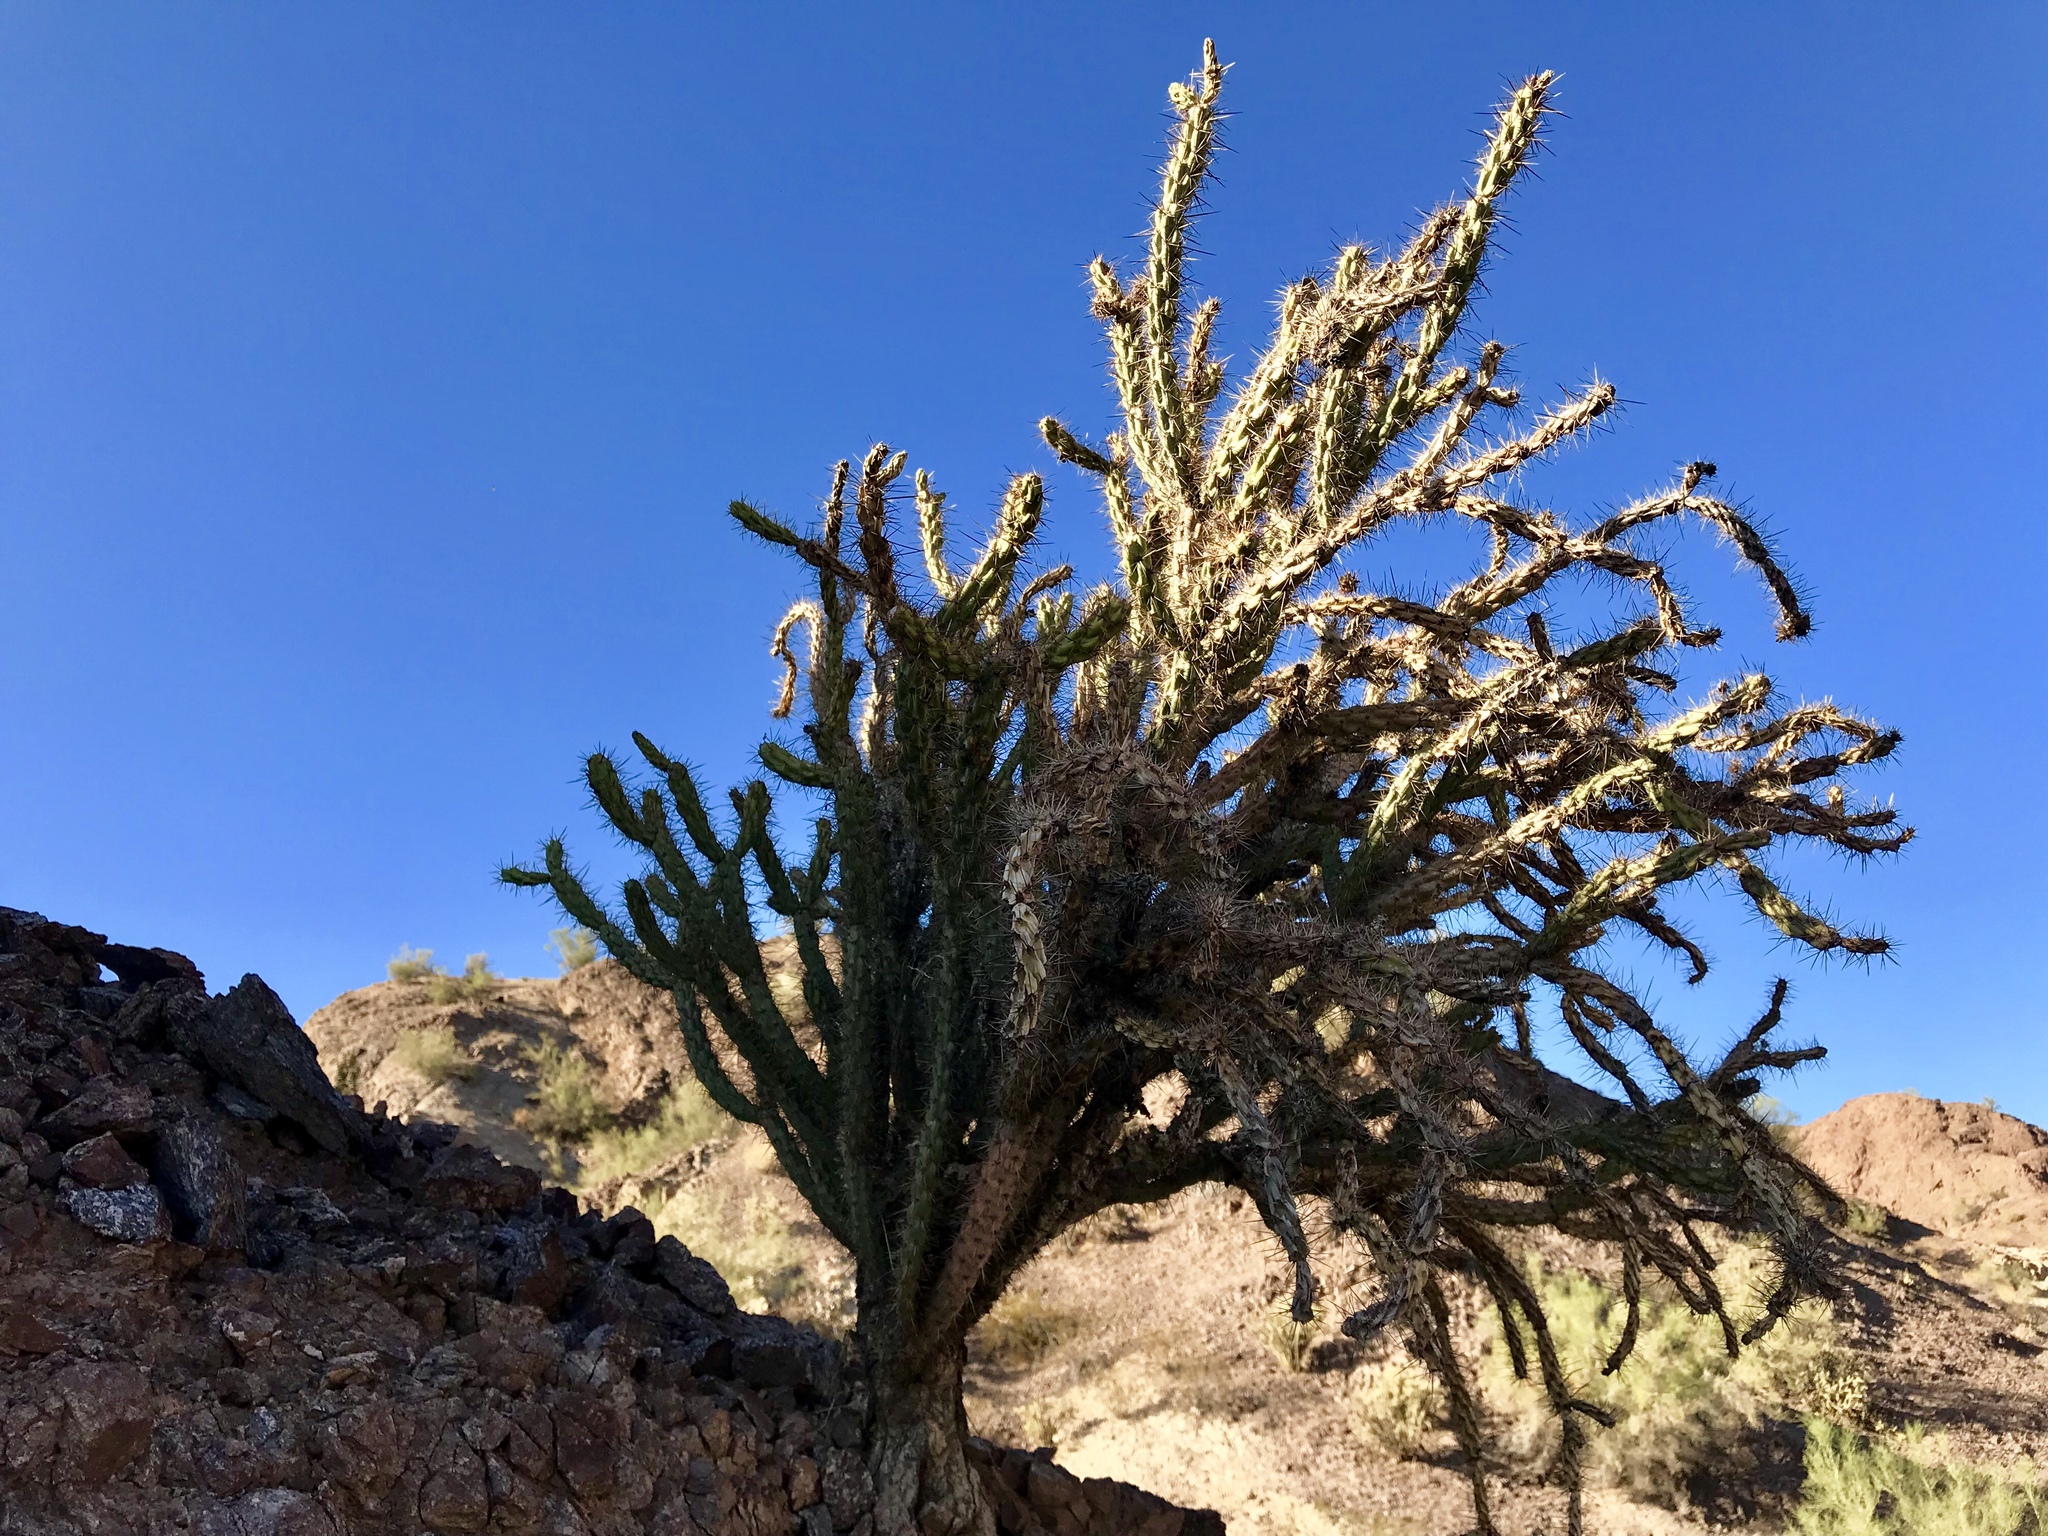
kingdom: Plantae
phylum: Tracheophyta
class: Magnoliopsida
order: Caryophyllales
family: Cactaceae
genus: Cylindropuntia
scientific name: Cylindropuntia acanthocarpa
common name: Buckhorn cholla
